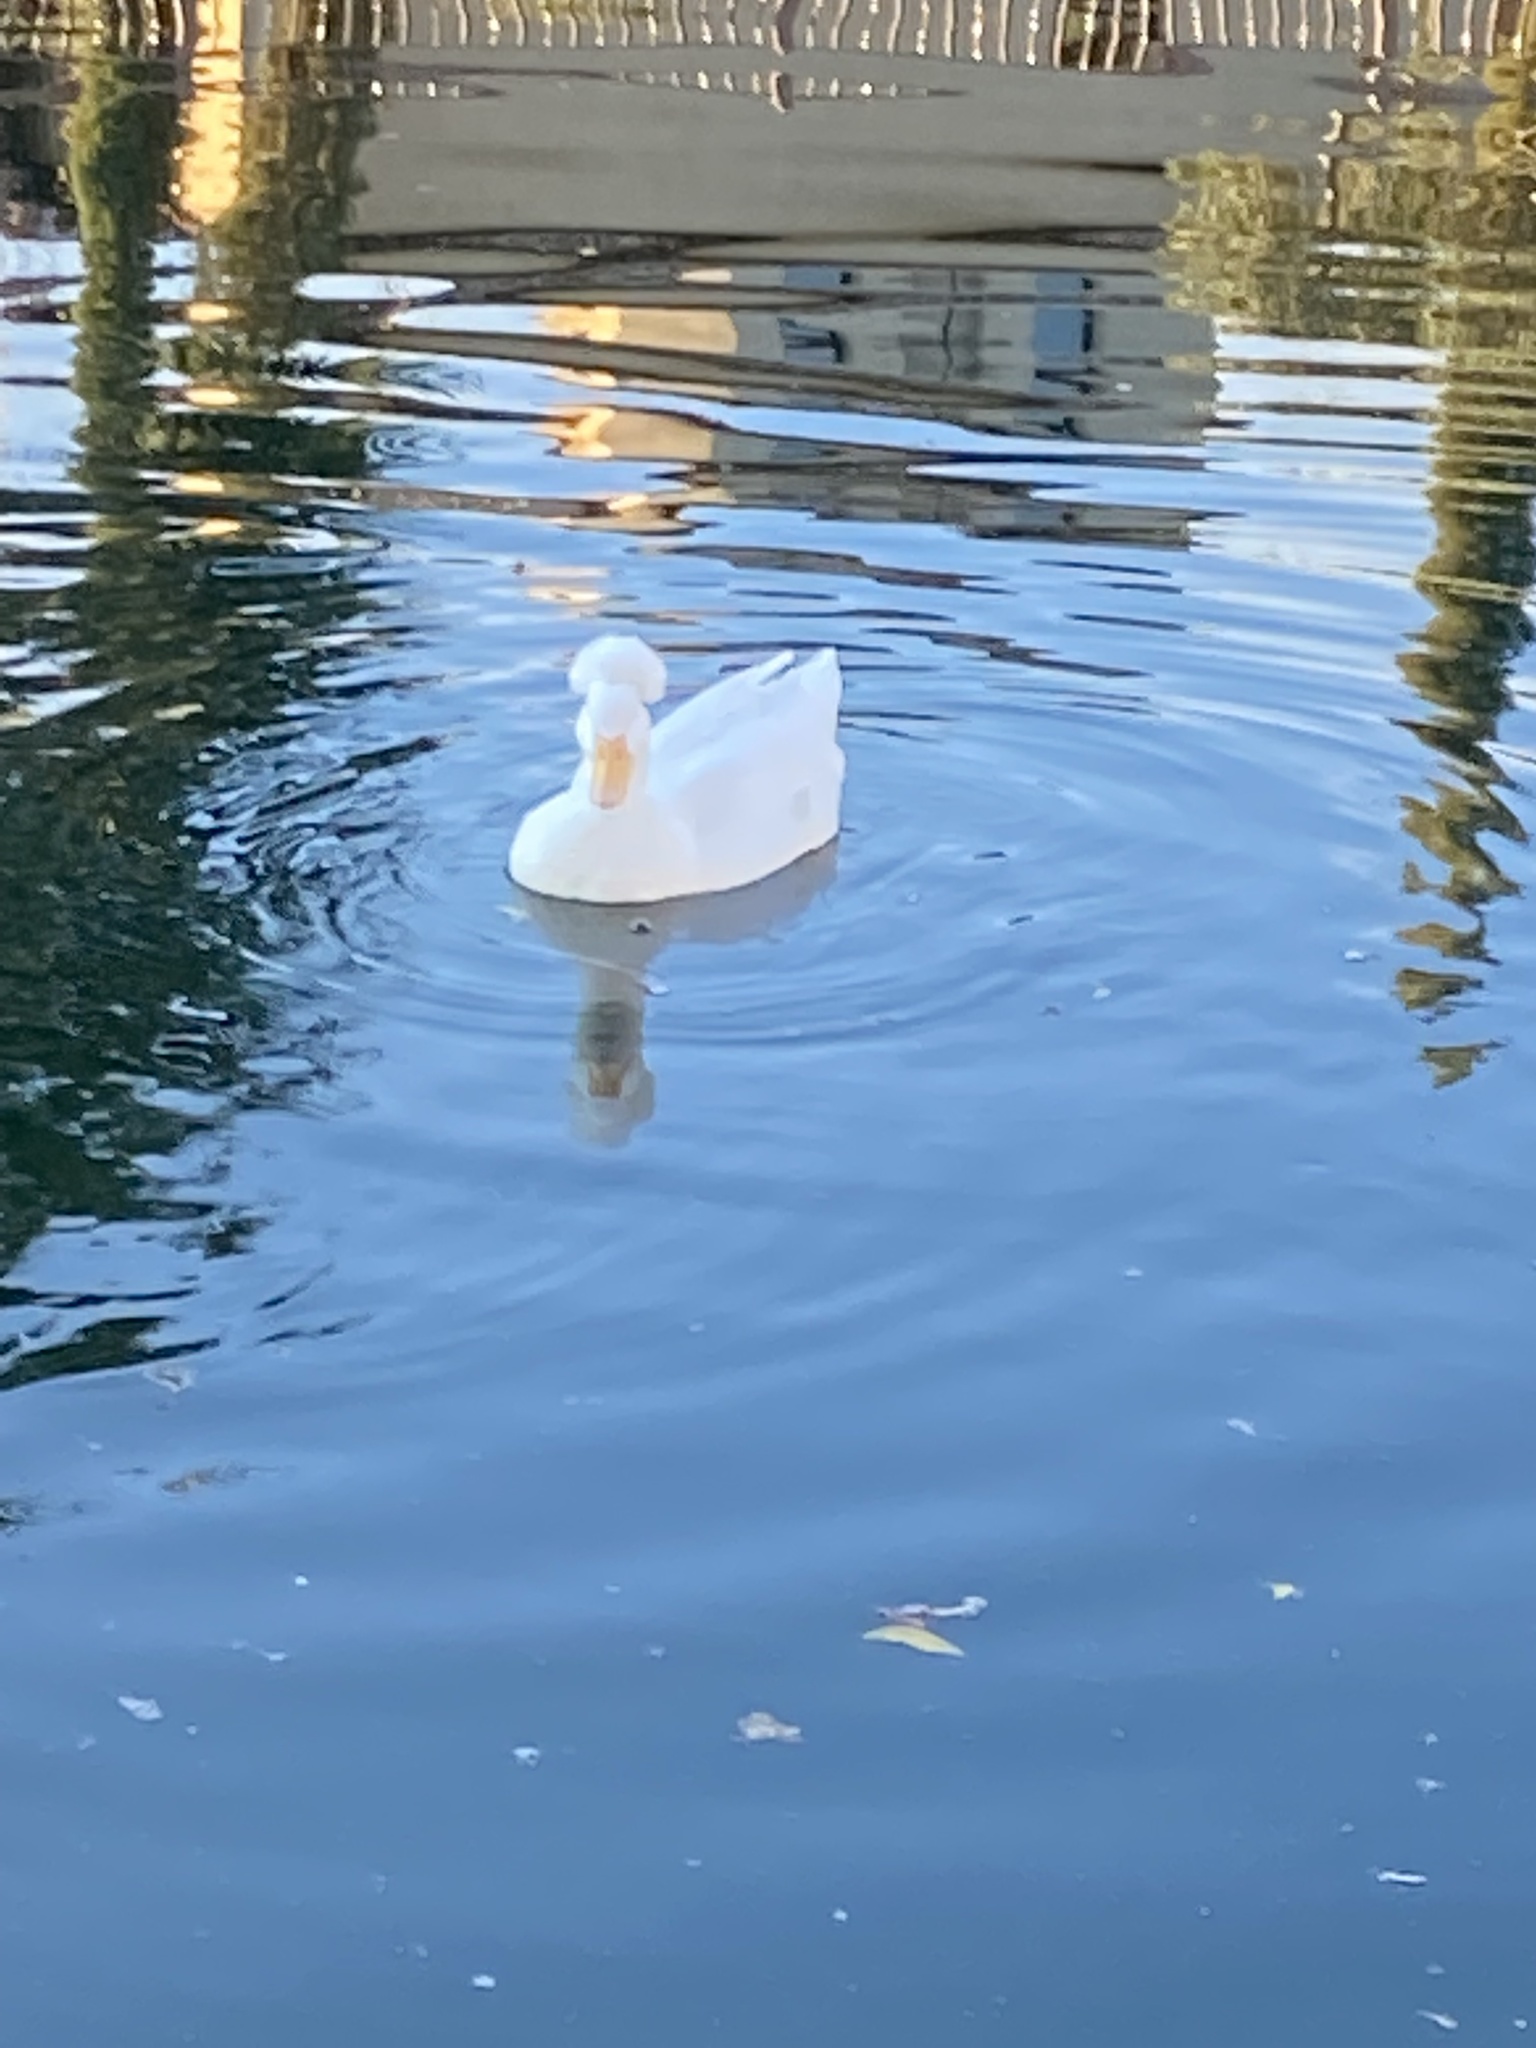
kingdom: Animalia
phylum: Chordata
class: Aves
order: Anseriformes
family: Anatidae
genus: Anas
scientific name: Anas platyrhynchos
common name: Mallard
